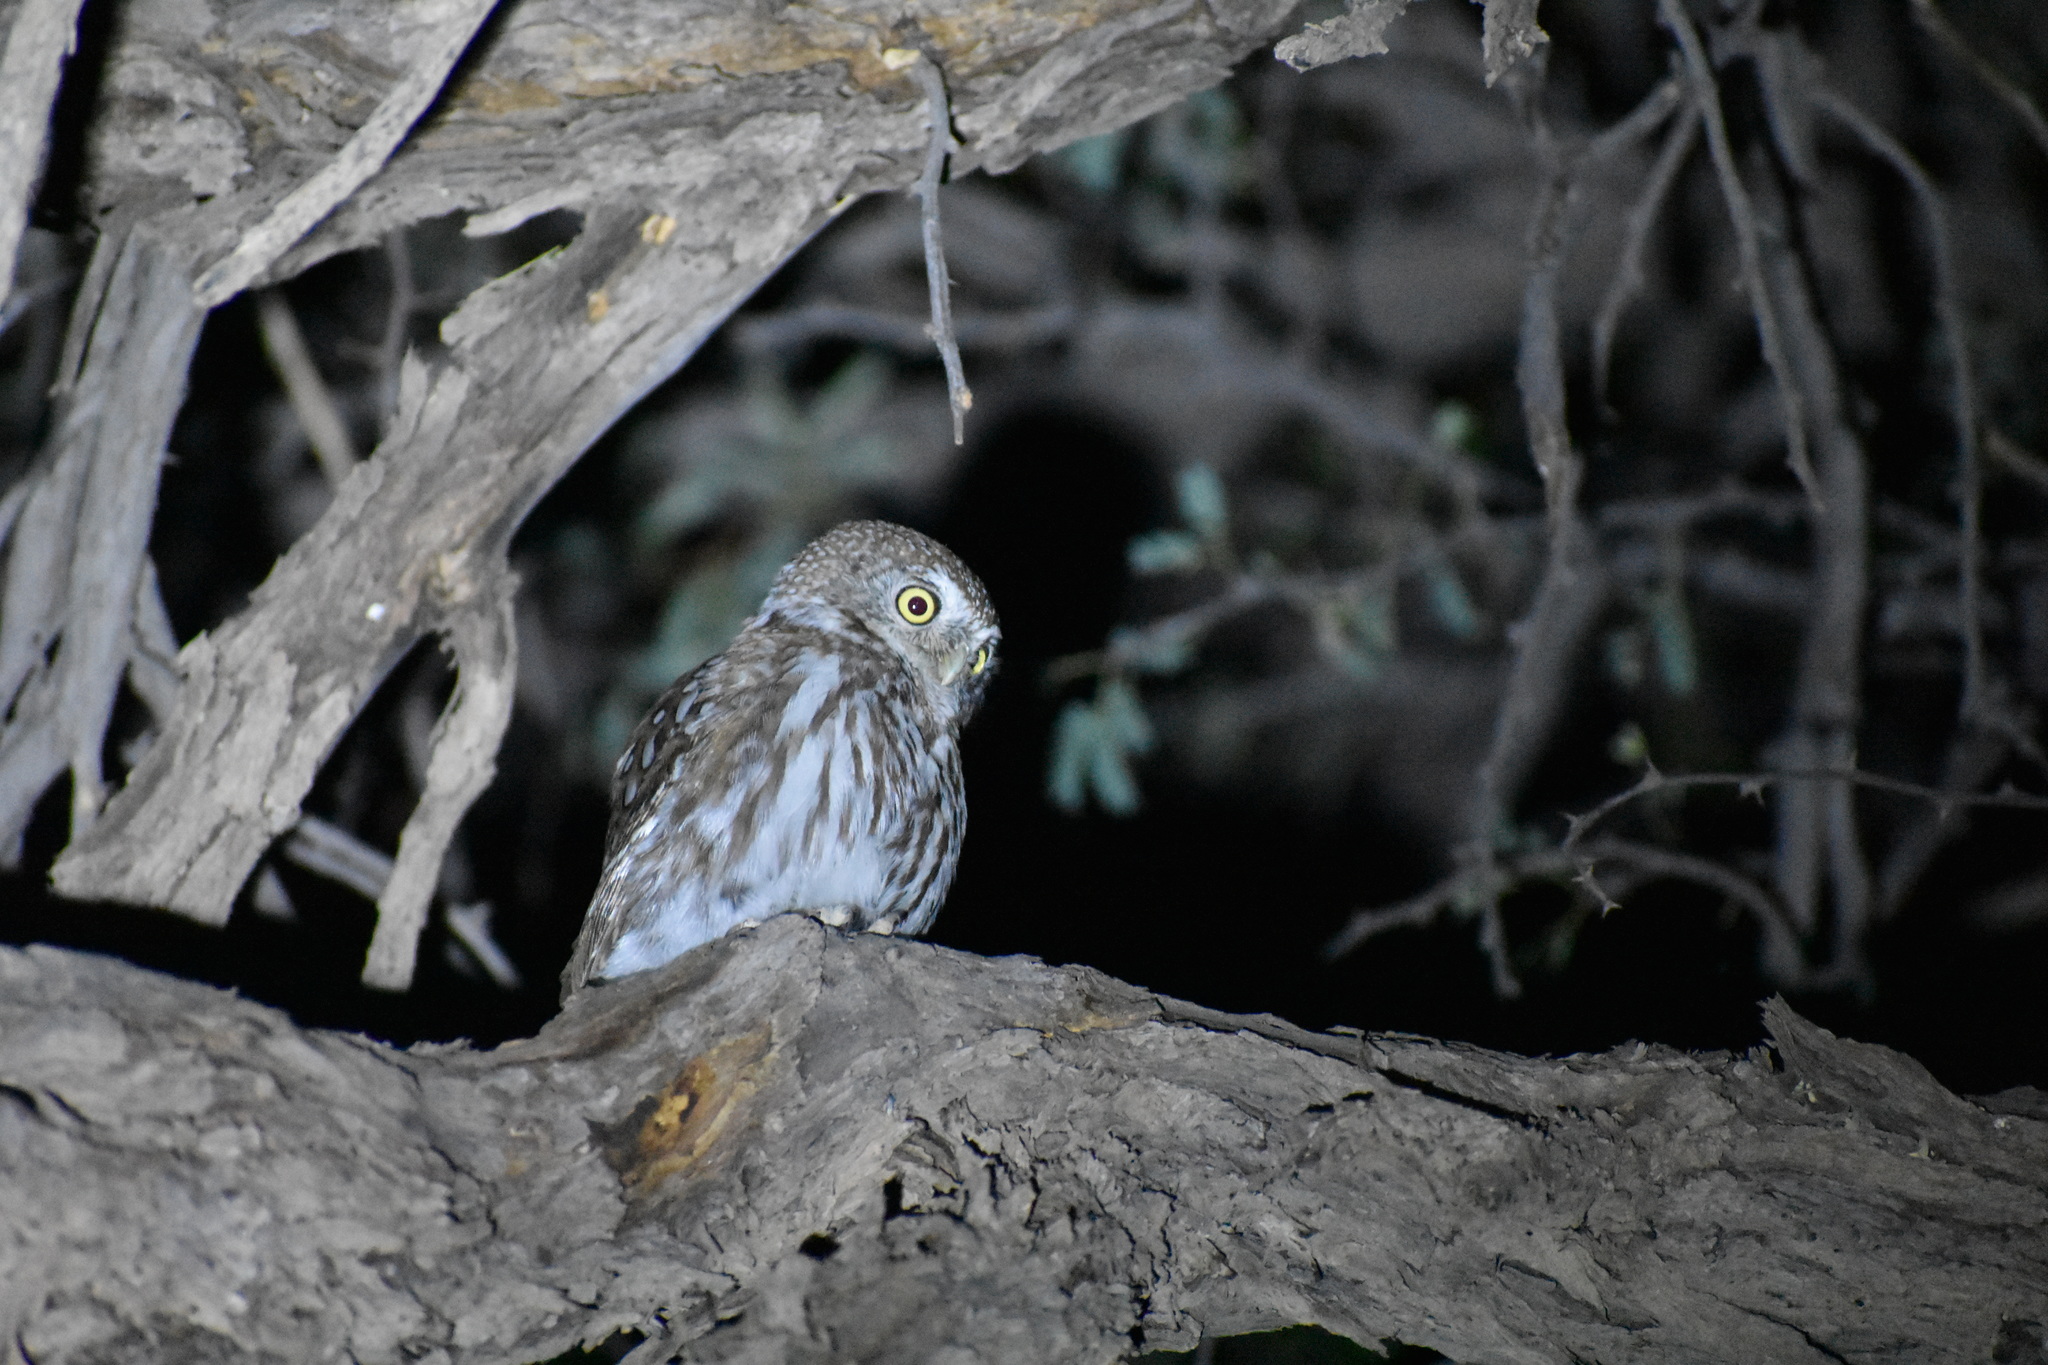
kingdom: Animalia
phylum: Chordata
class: Aves
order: Strigiformes
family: Strigidae
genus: Glaucidium
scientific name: Glaucidium perlatum
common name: Pearl-spotted owlet
